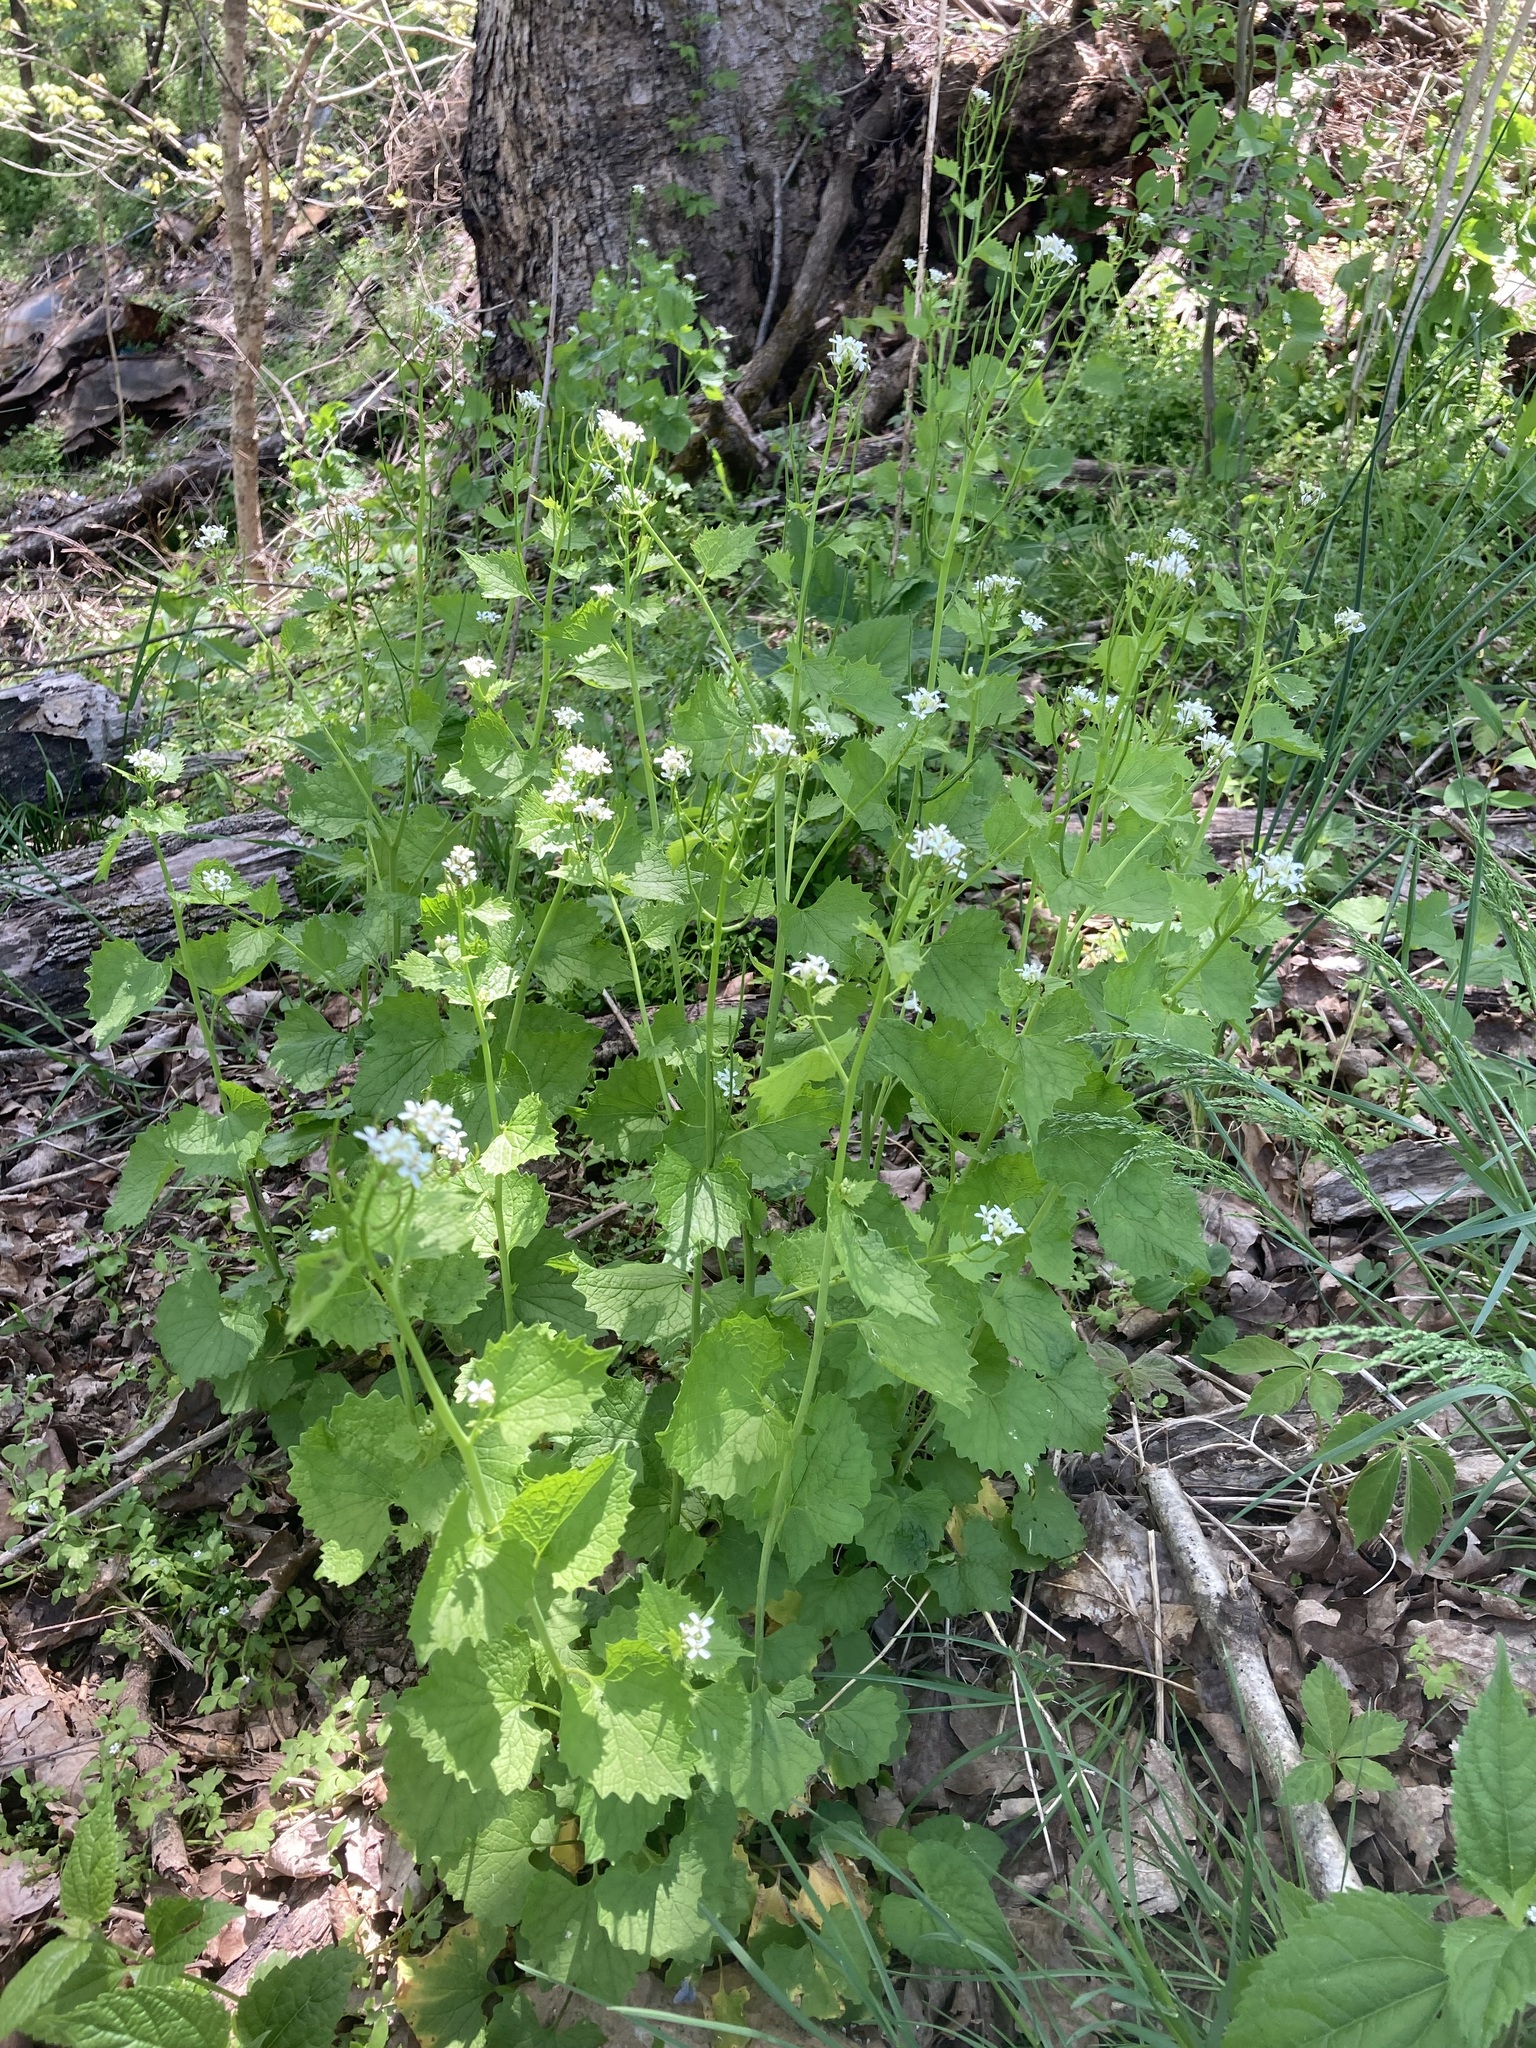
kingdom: Plantae
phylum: Tracheophyta
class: Magnoliopsida
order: Brassicales
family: Brassicaceae
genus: Alliaria
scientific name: Alliaria petiolata
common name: Garlic mustard
